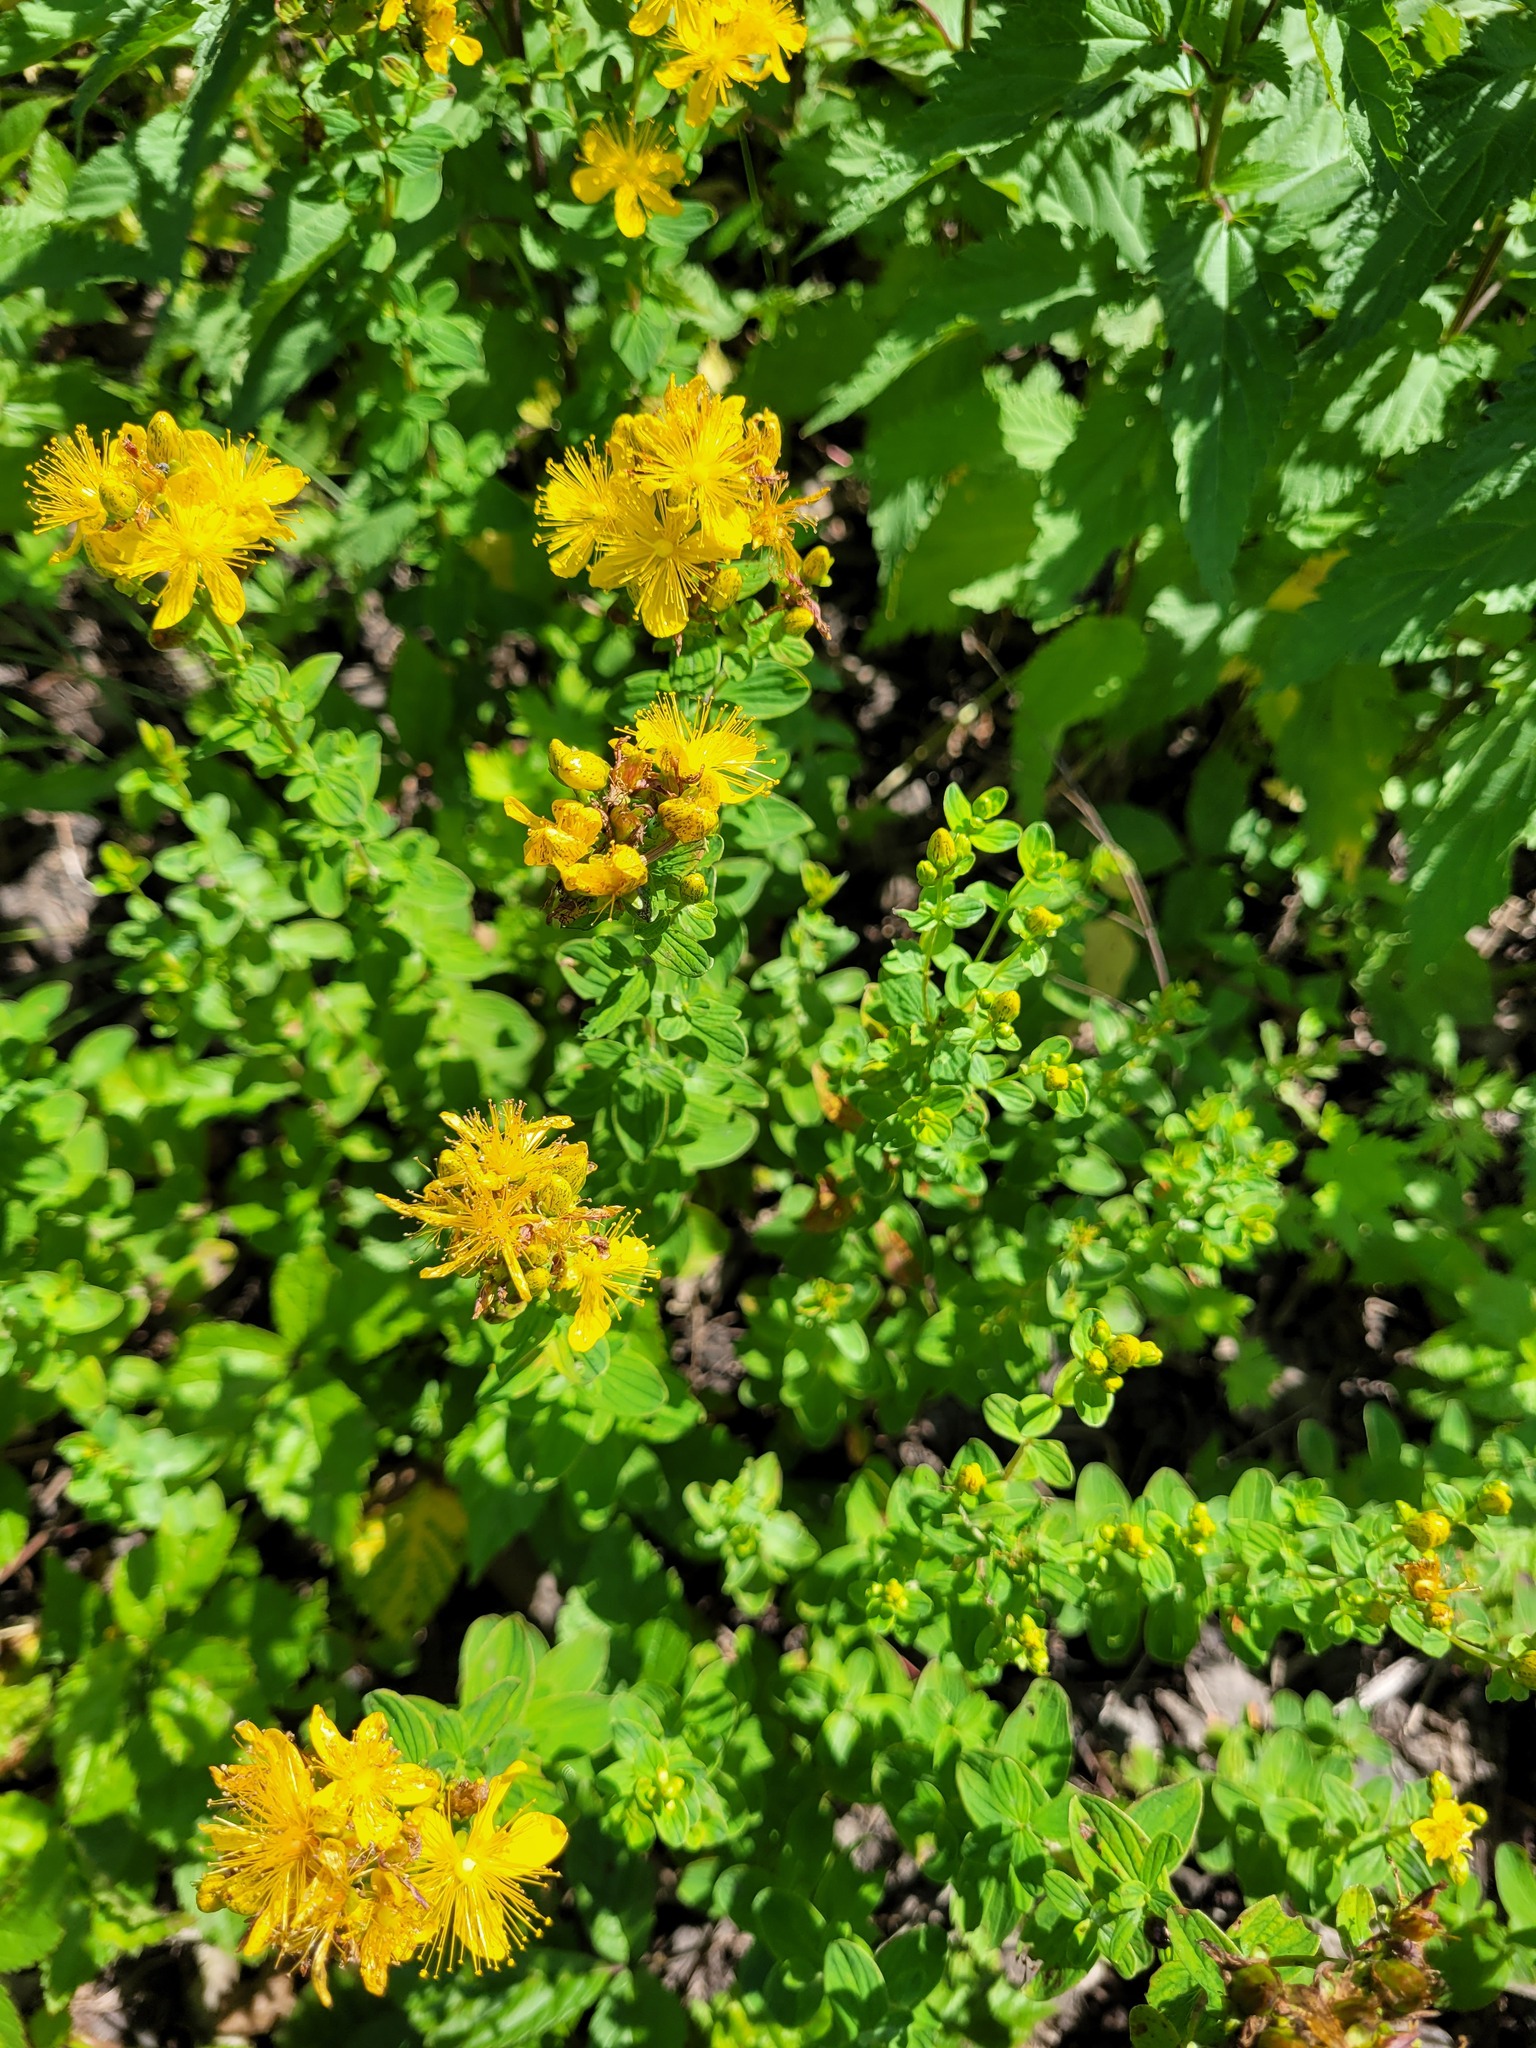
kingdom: Plantae
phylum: Tracheophyta
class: Magnoliopsida
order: Malpighiales
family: Hypericaceae
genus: Hypericum
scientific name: Hypericum maculatum
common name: Imperforate st. john's-wort
